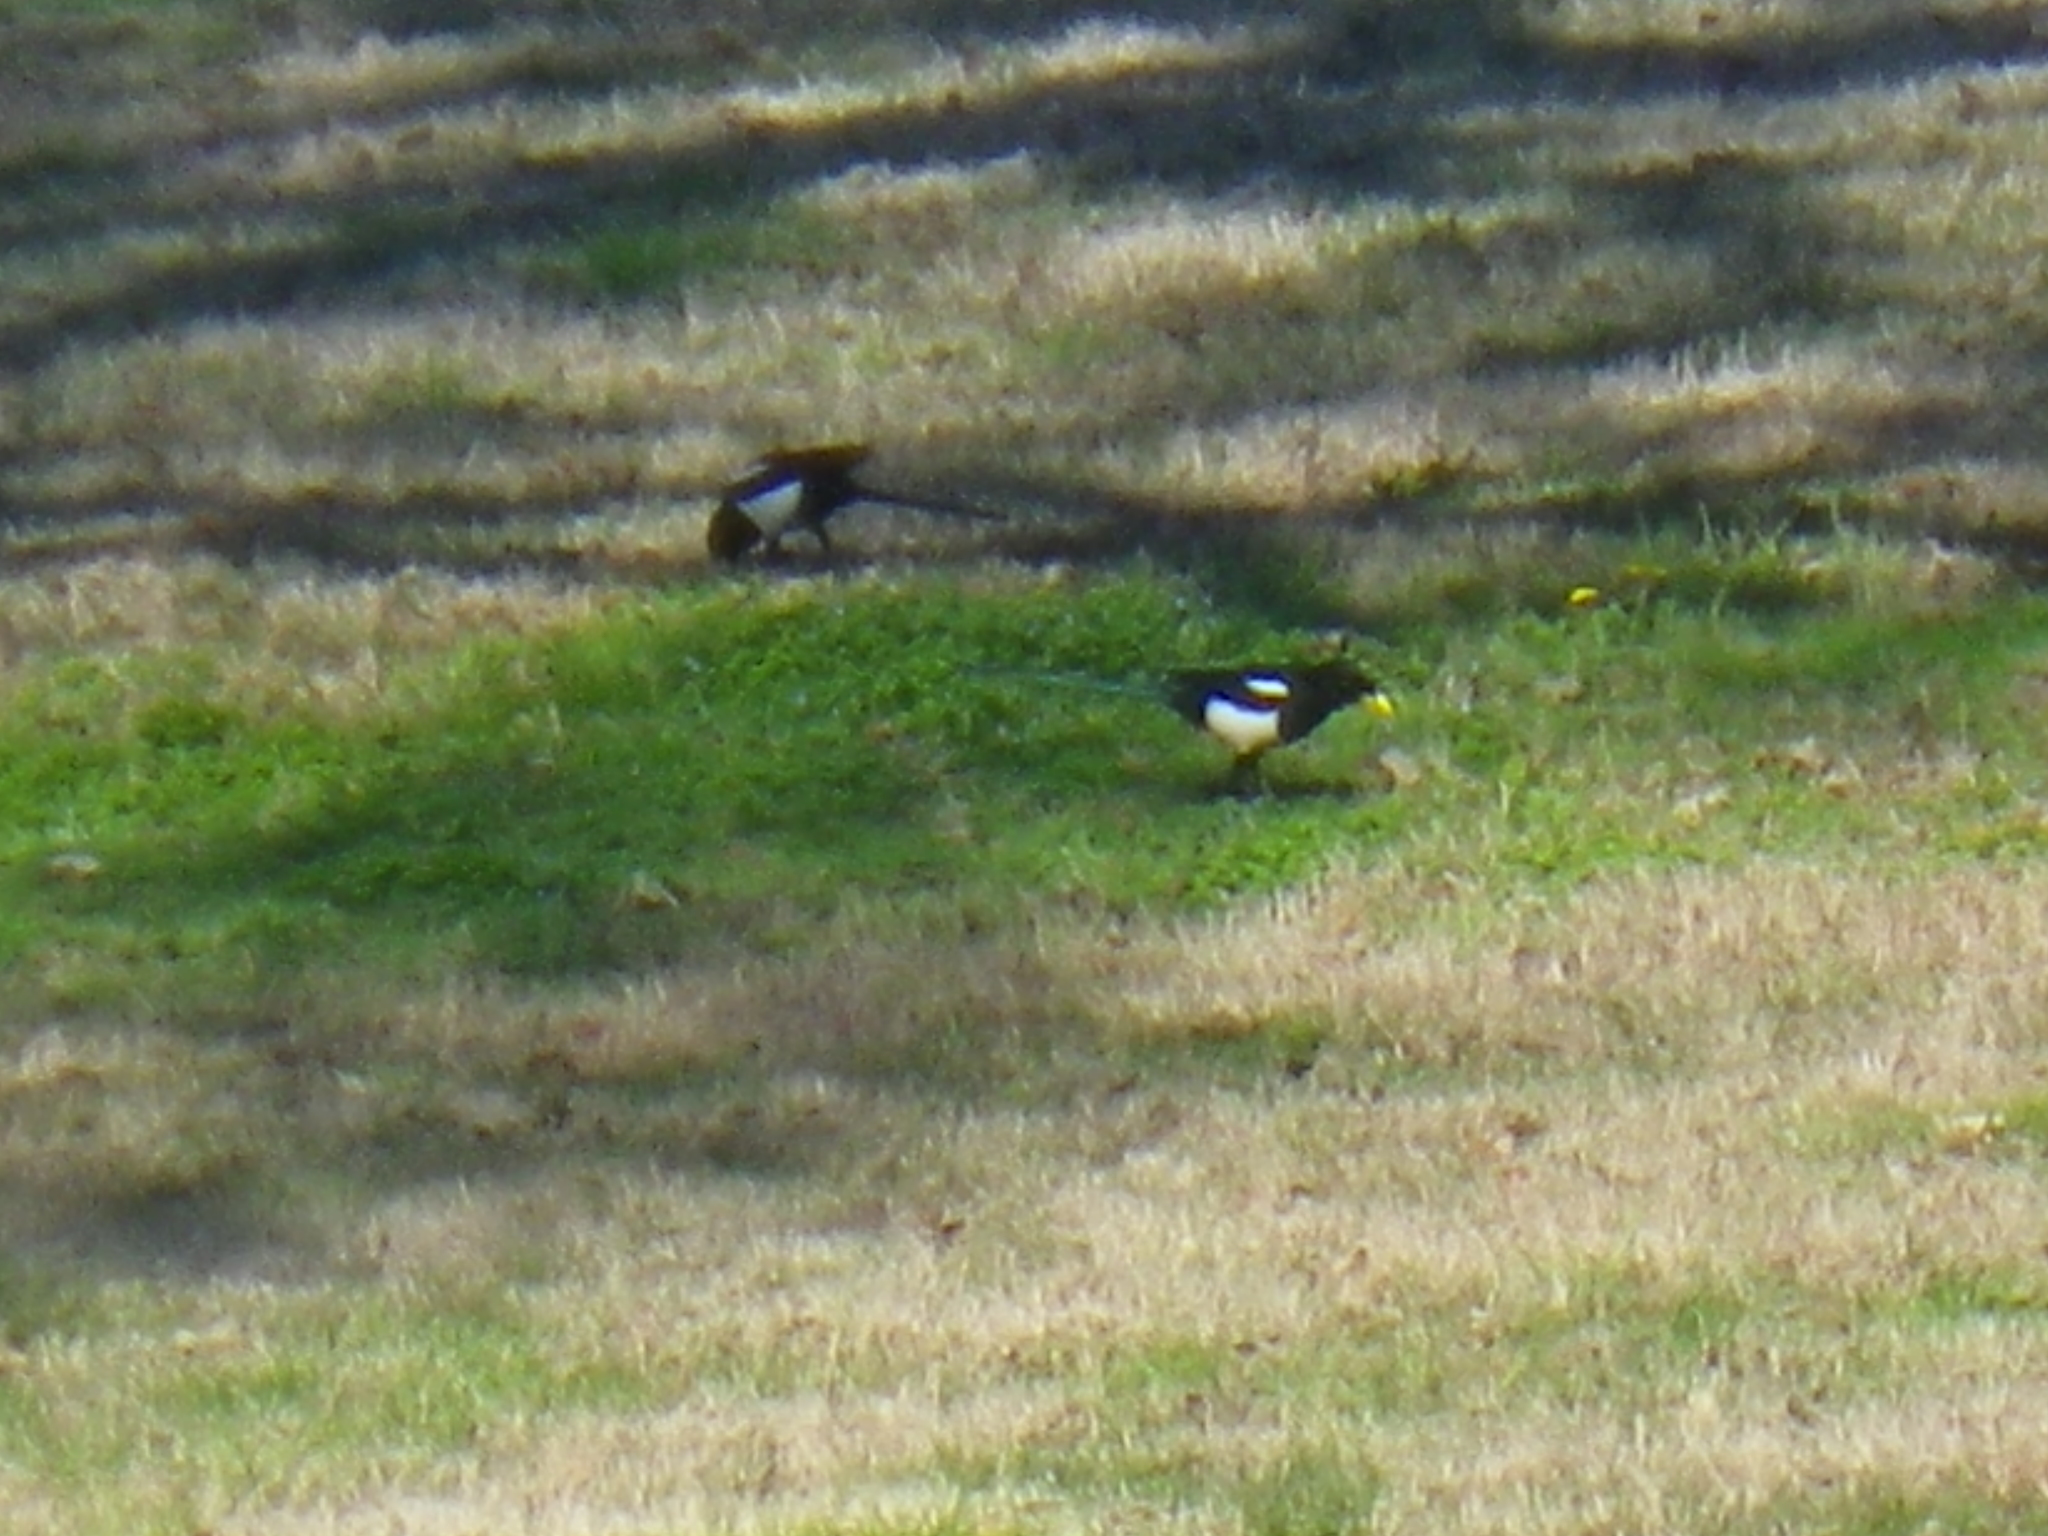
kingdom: Animalia
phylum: Chordata
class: Aves
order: Passeriformes
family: Corvidae
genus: Pica
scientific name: Pica nuttalli
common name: Yellow-billed magpie
